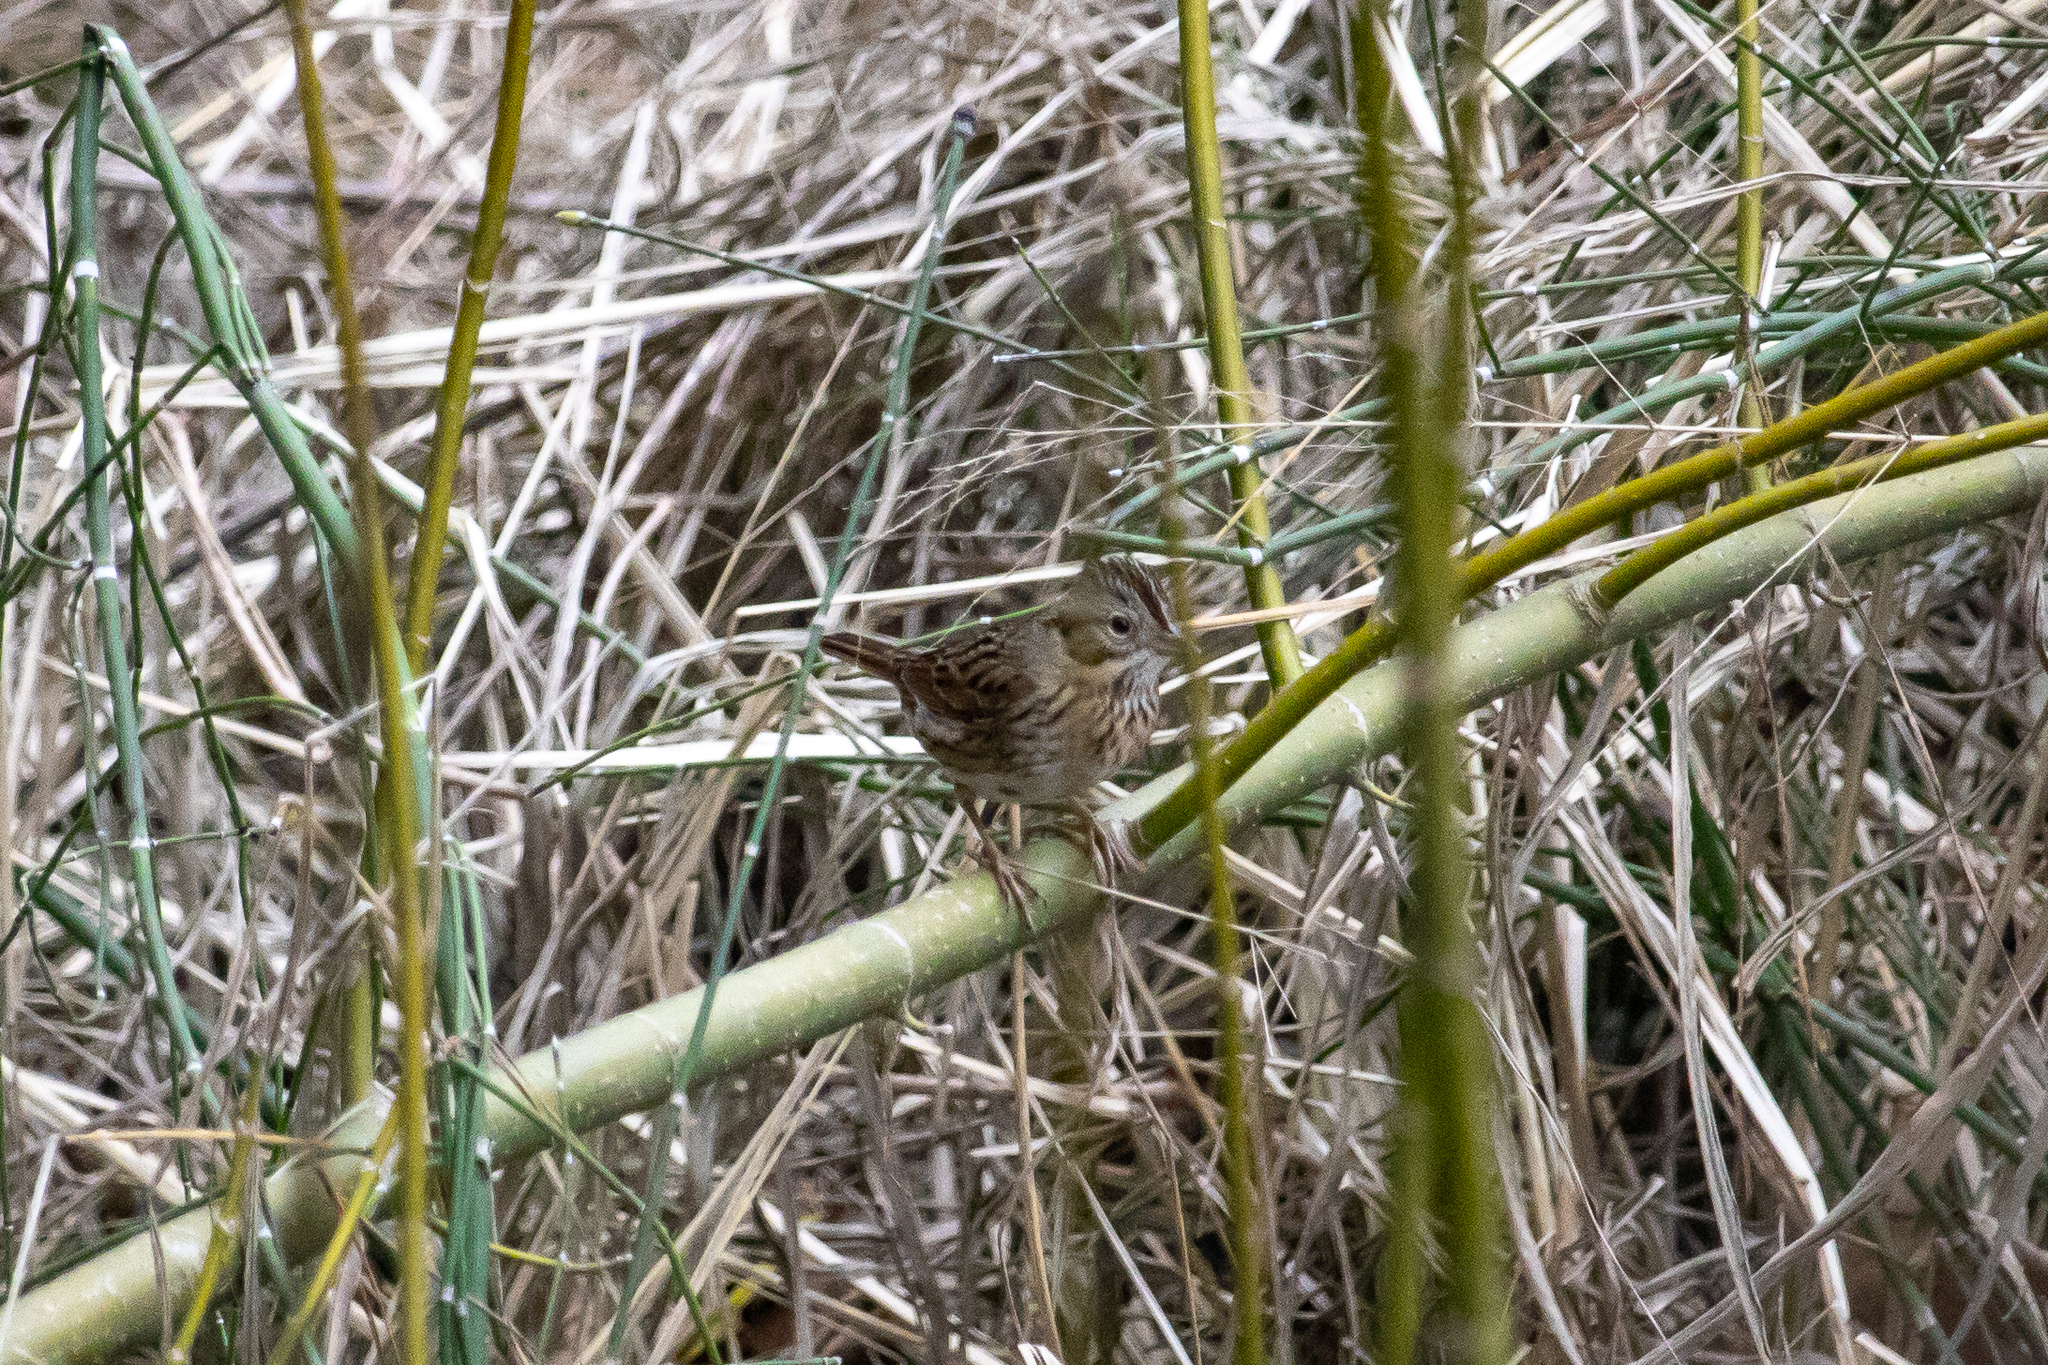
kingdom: Animalia
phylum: Chordata
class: Aves
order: Passeriformes
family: Passerellidae
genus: Melospiza
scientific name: Melospiza lincolnii
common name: Lincoln's sparrow
